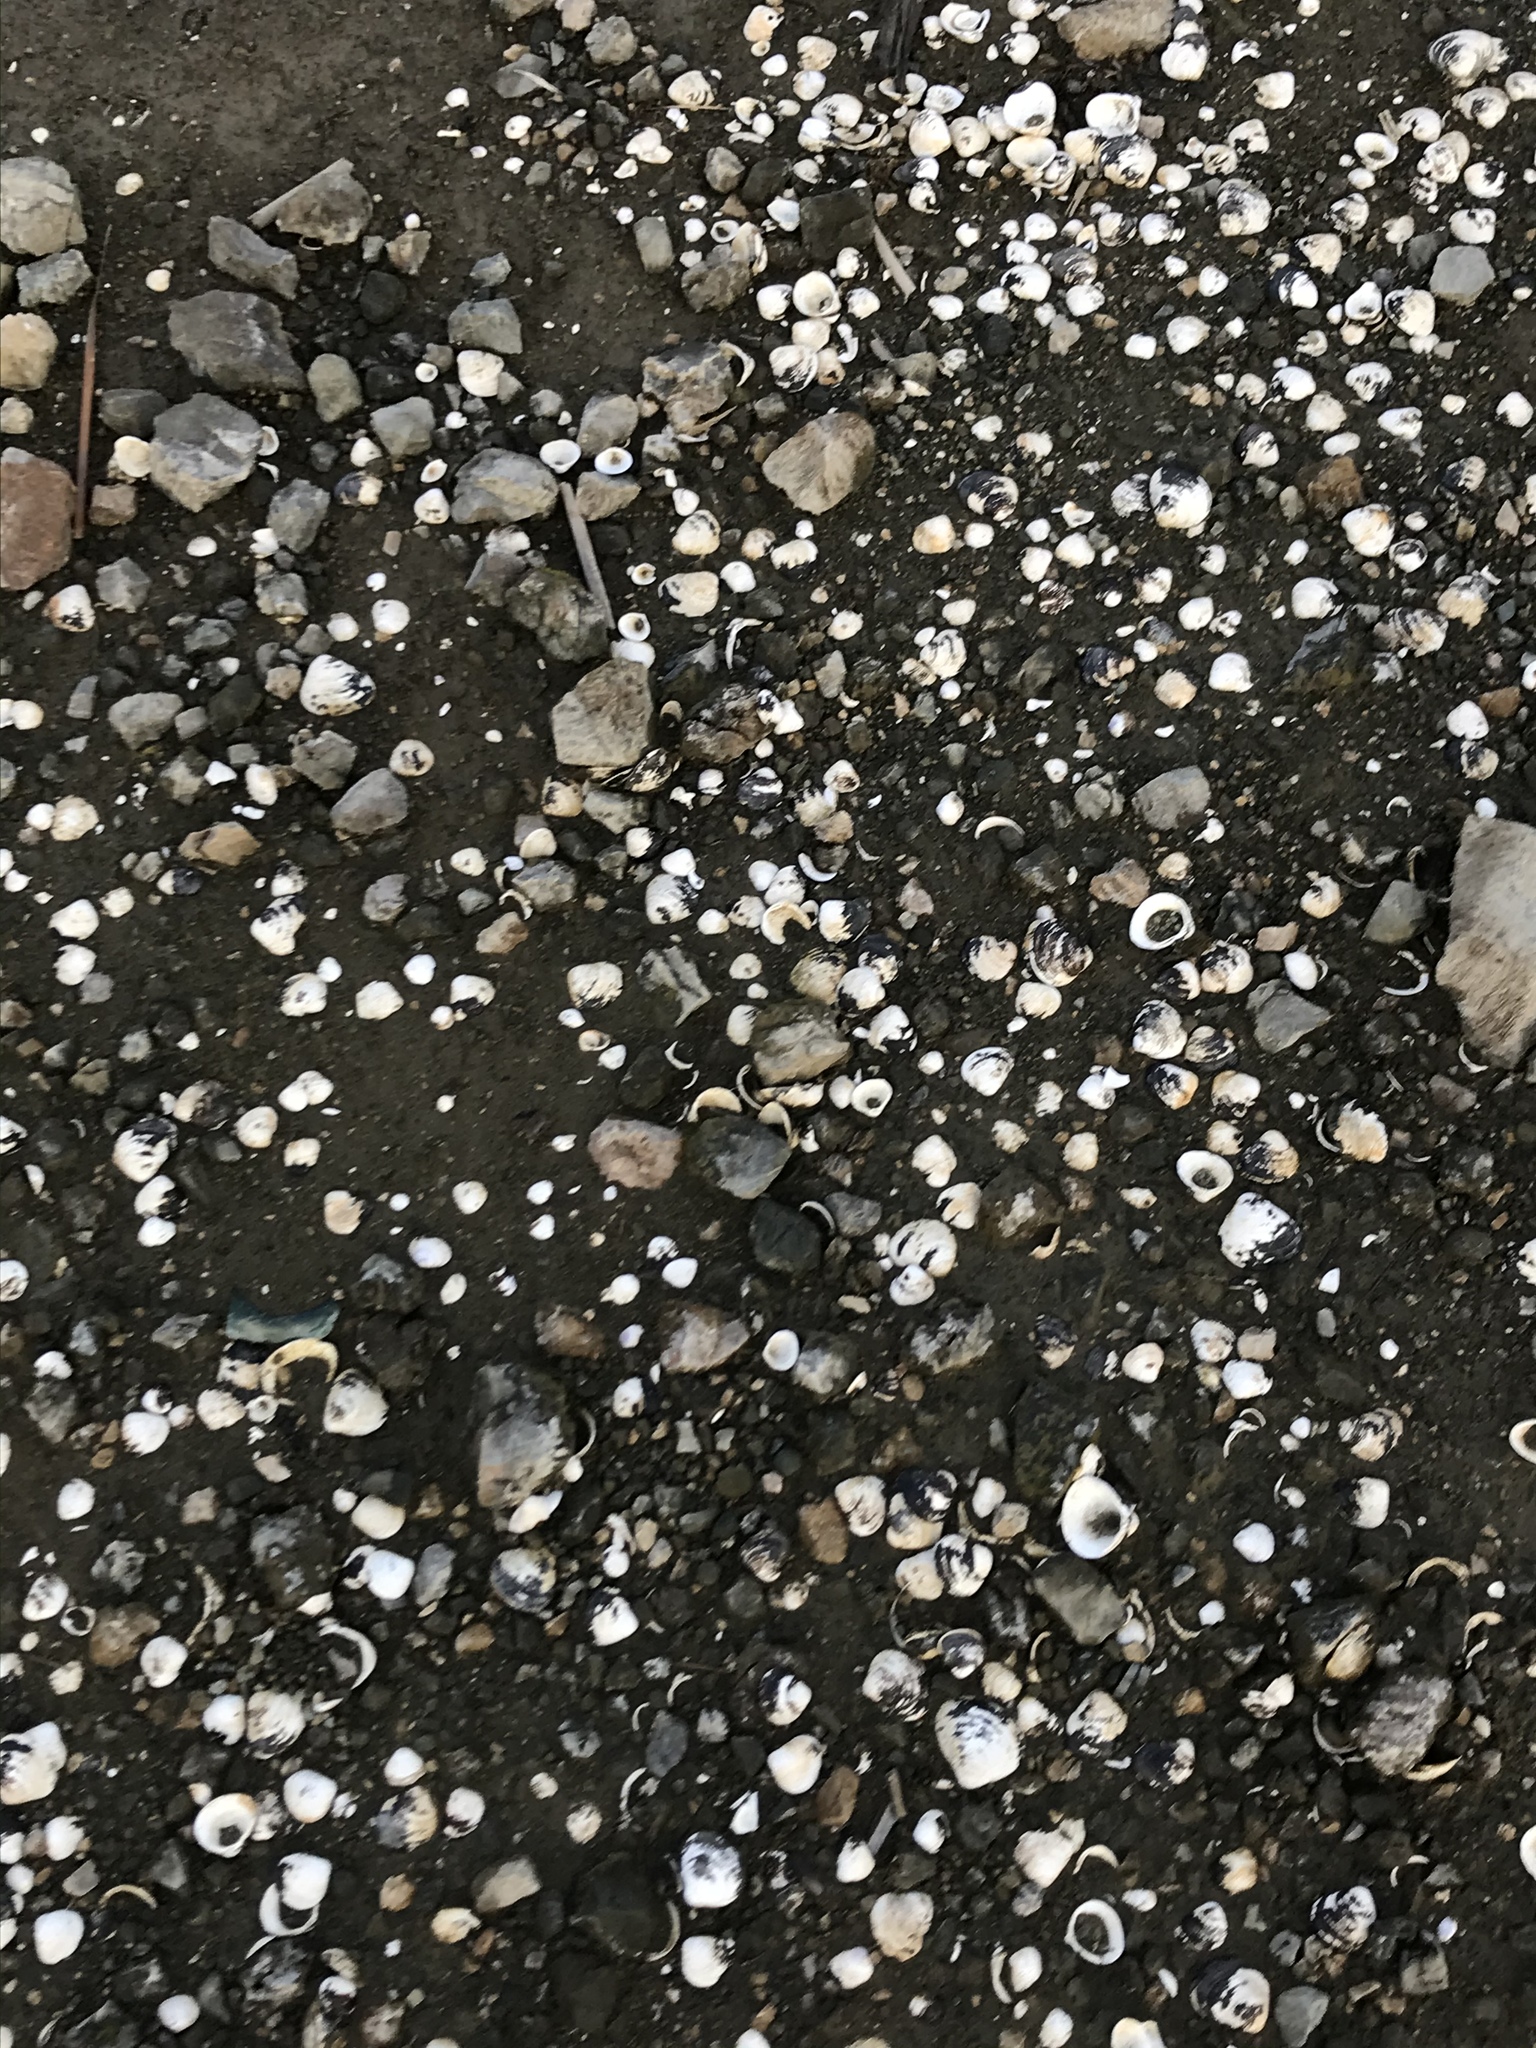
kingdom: Animalia
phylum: Mollusca
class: Bivalvia
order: Venerida
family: Cyrenidae
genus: Corbicula
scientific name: Corbicula fluminea
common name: Asian clam
